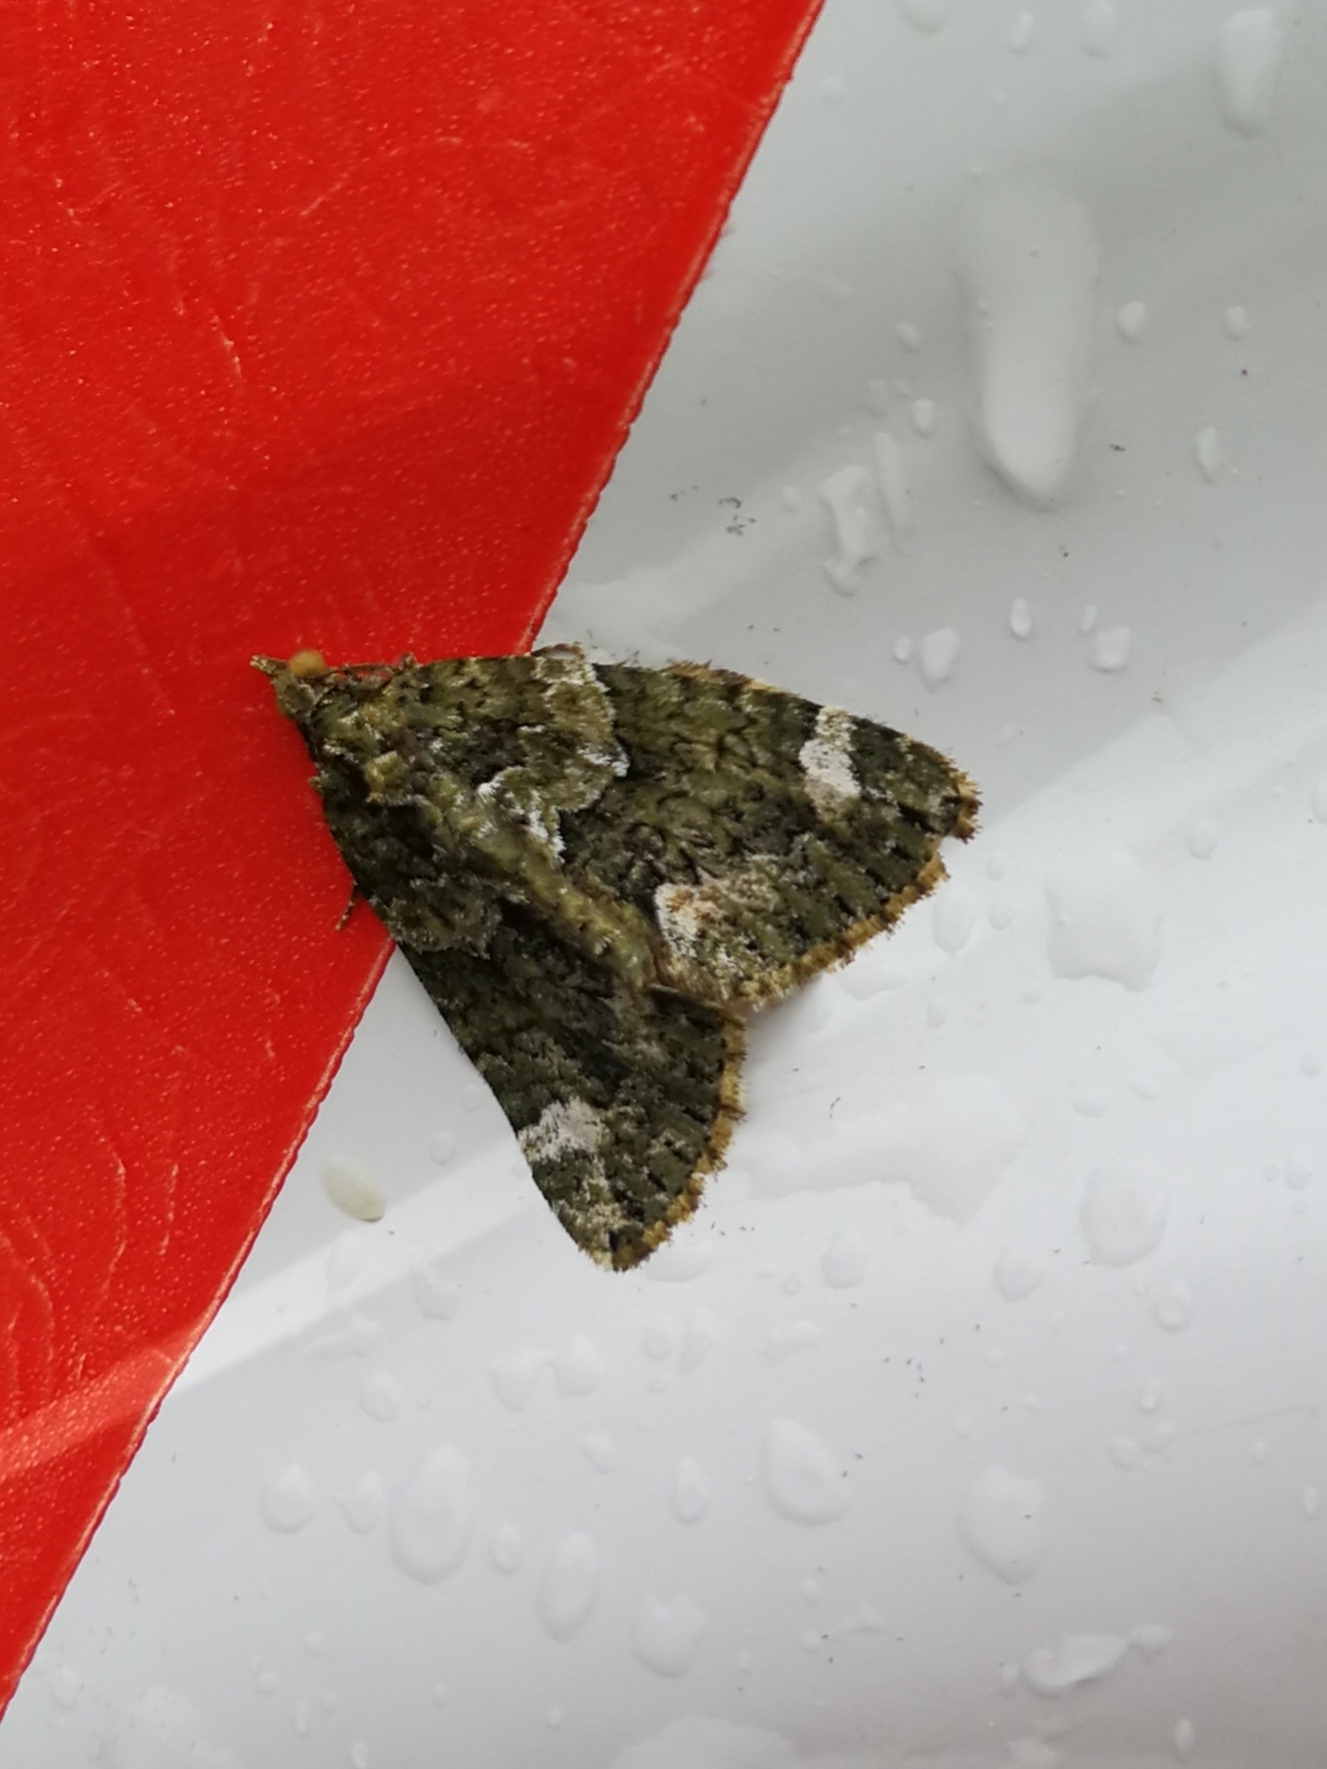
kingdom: Animalia
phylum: Arthropoda
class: Insecta
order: Lepidoptera
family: Geometridae
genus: Chloroclysta
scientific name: Chloroclysta siterata
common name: Red-green carpet
